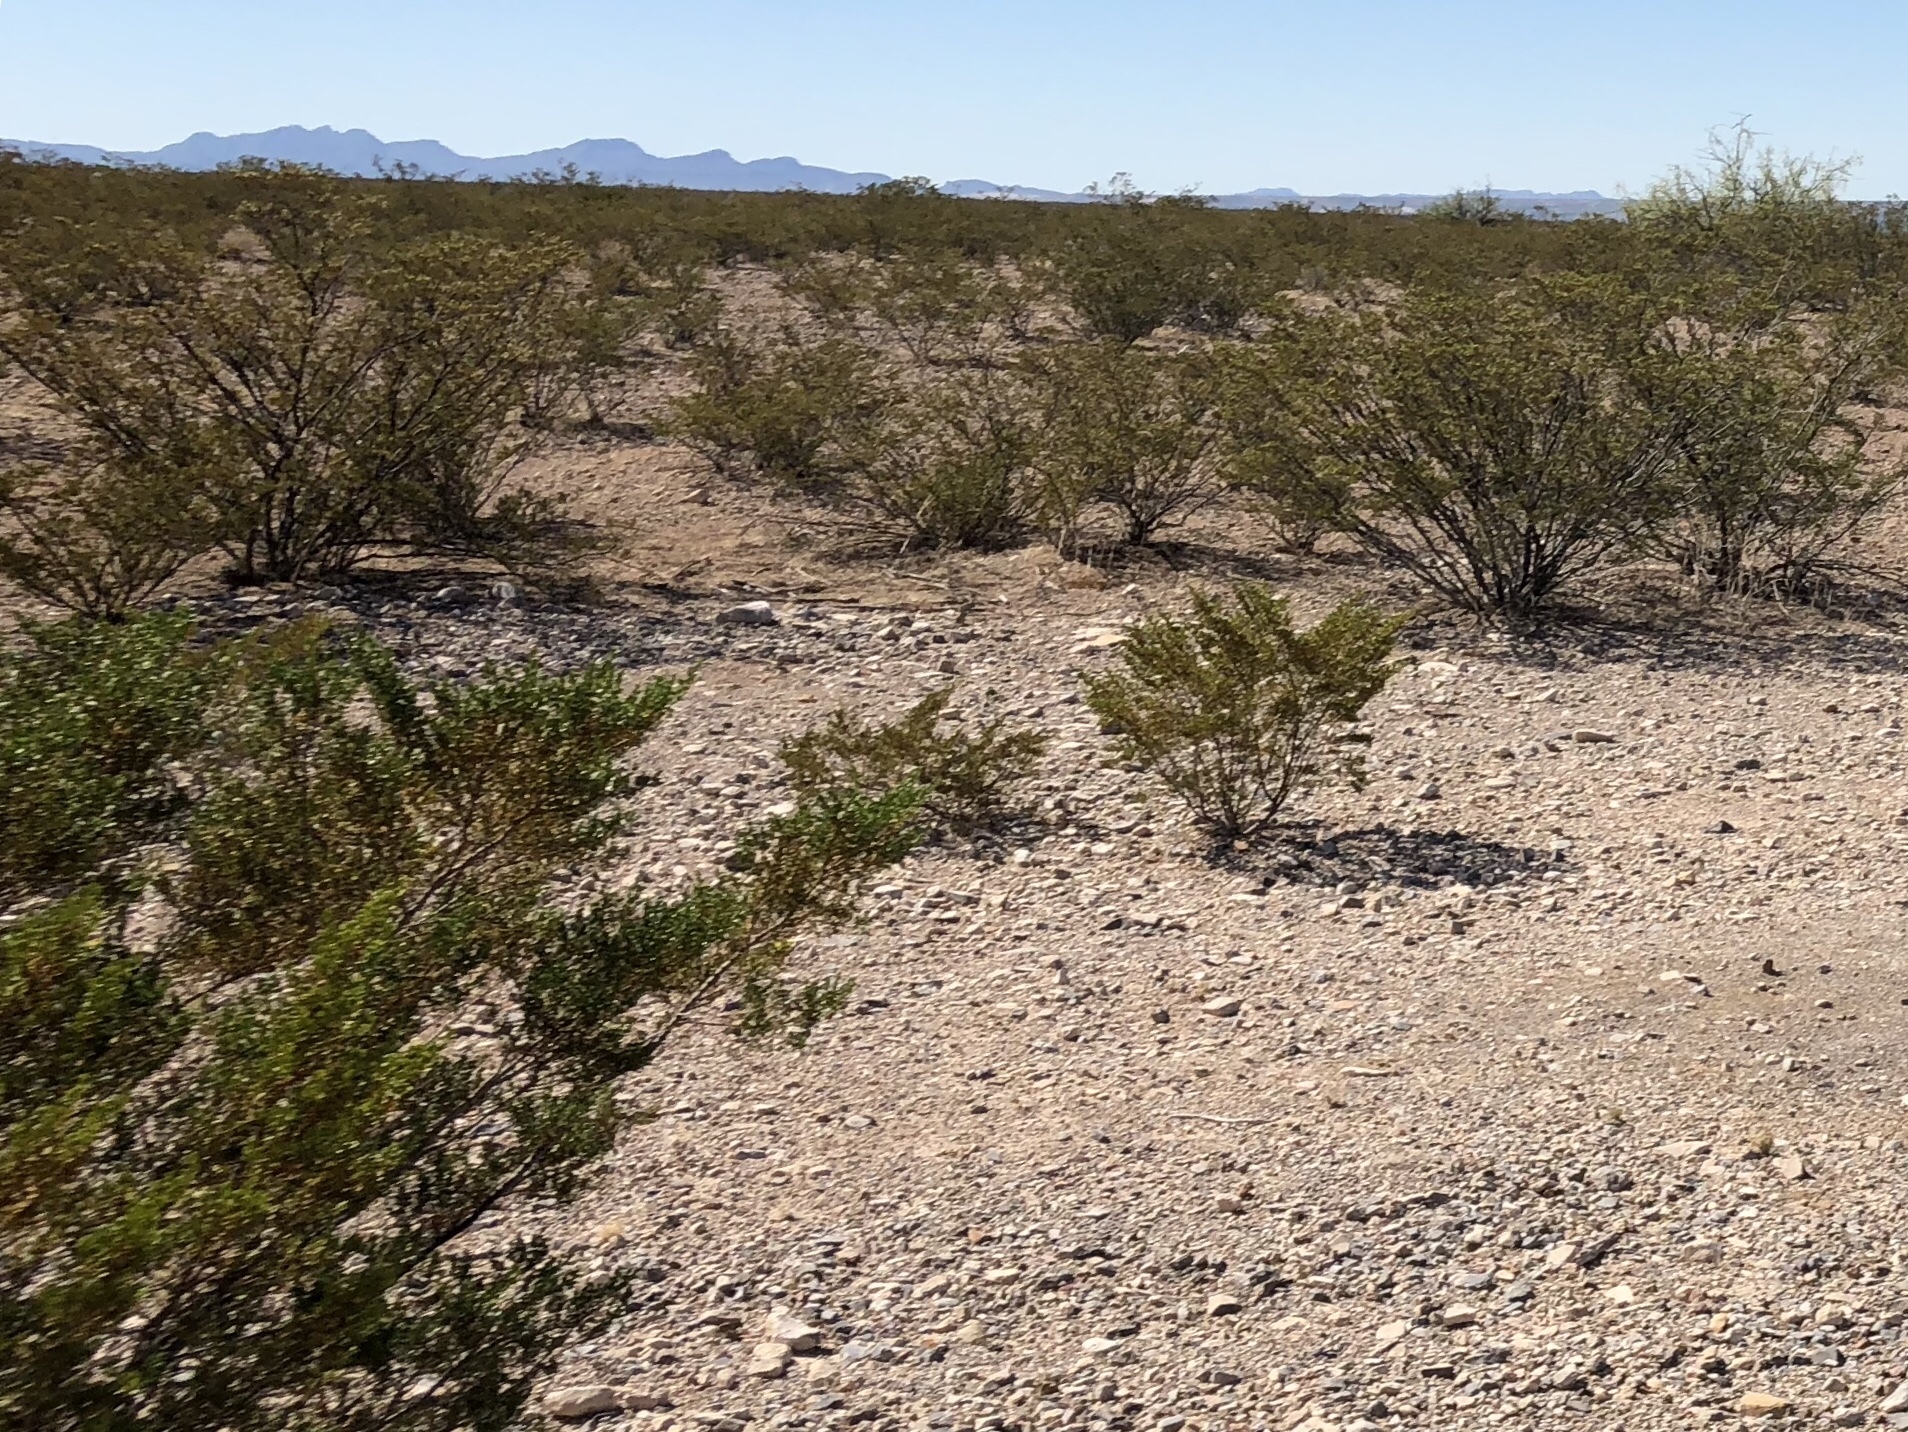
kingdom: Plantae
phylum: Tracheophyta
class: Magnoliopsida
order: Zygophyllales
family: Zygophyllaceae
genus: Larrea
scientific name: Larrea tridentata
